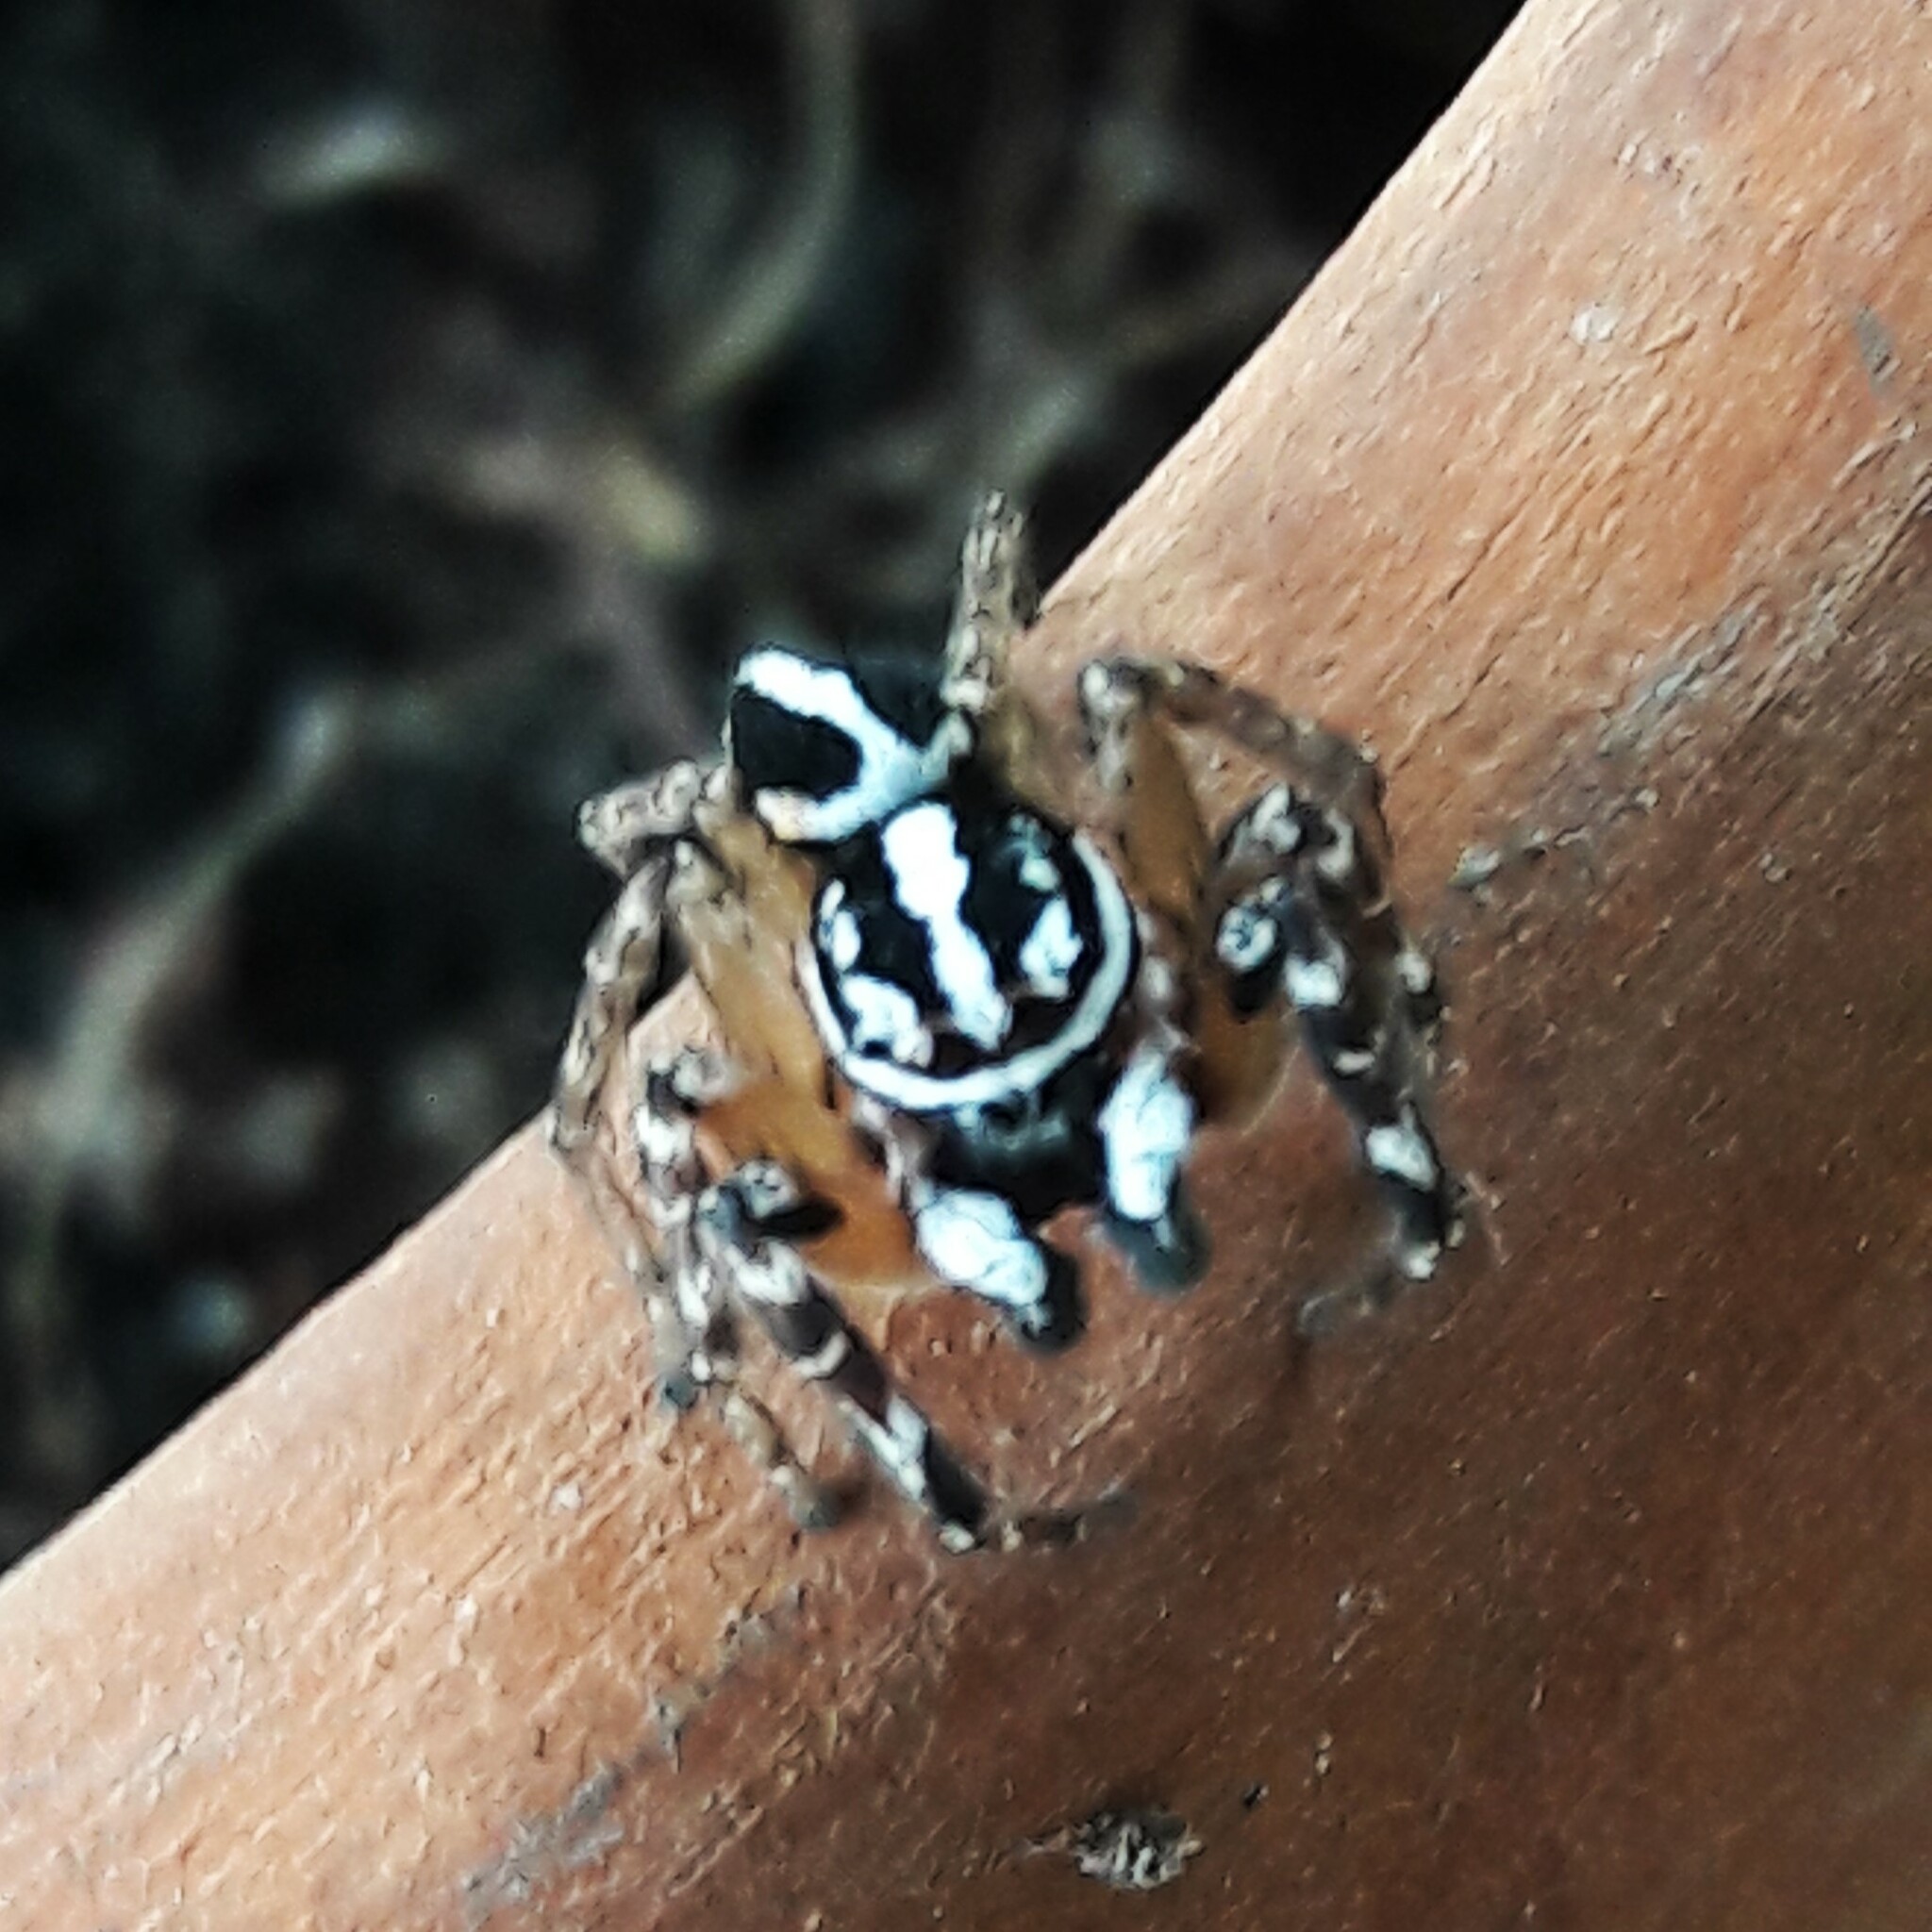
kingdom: Animalia
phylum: Arthropoda
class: Arachnida
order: Araneae
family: Salticidae
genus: Freya
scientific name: Freya nigrotaeniata
